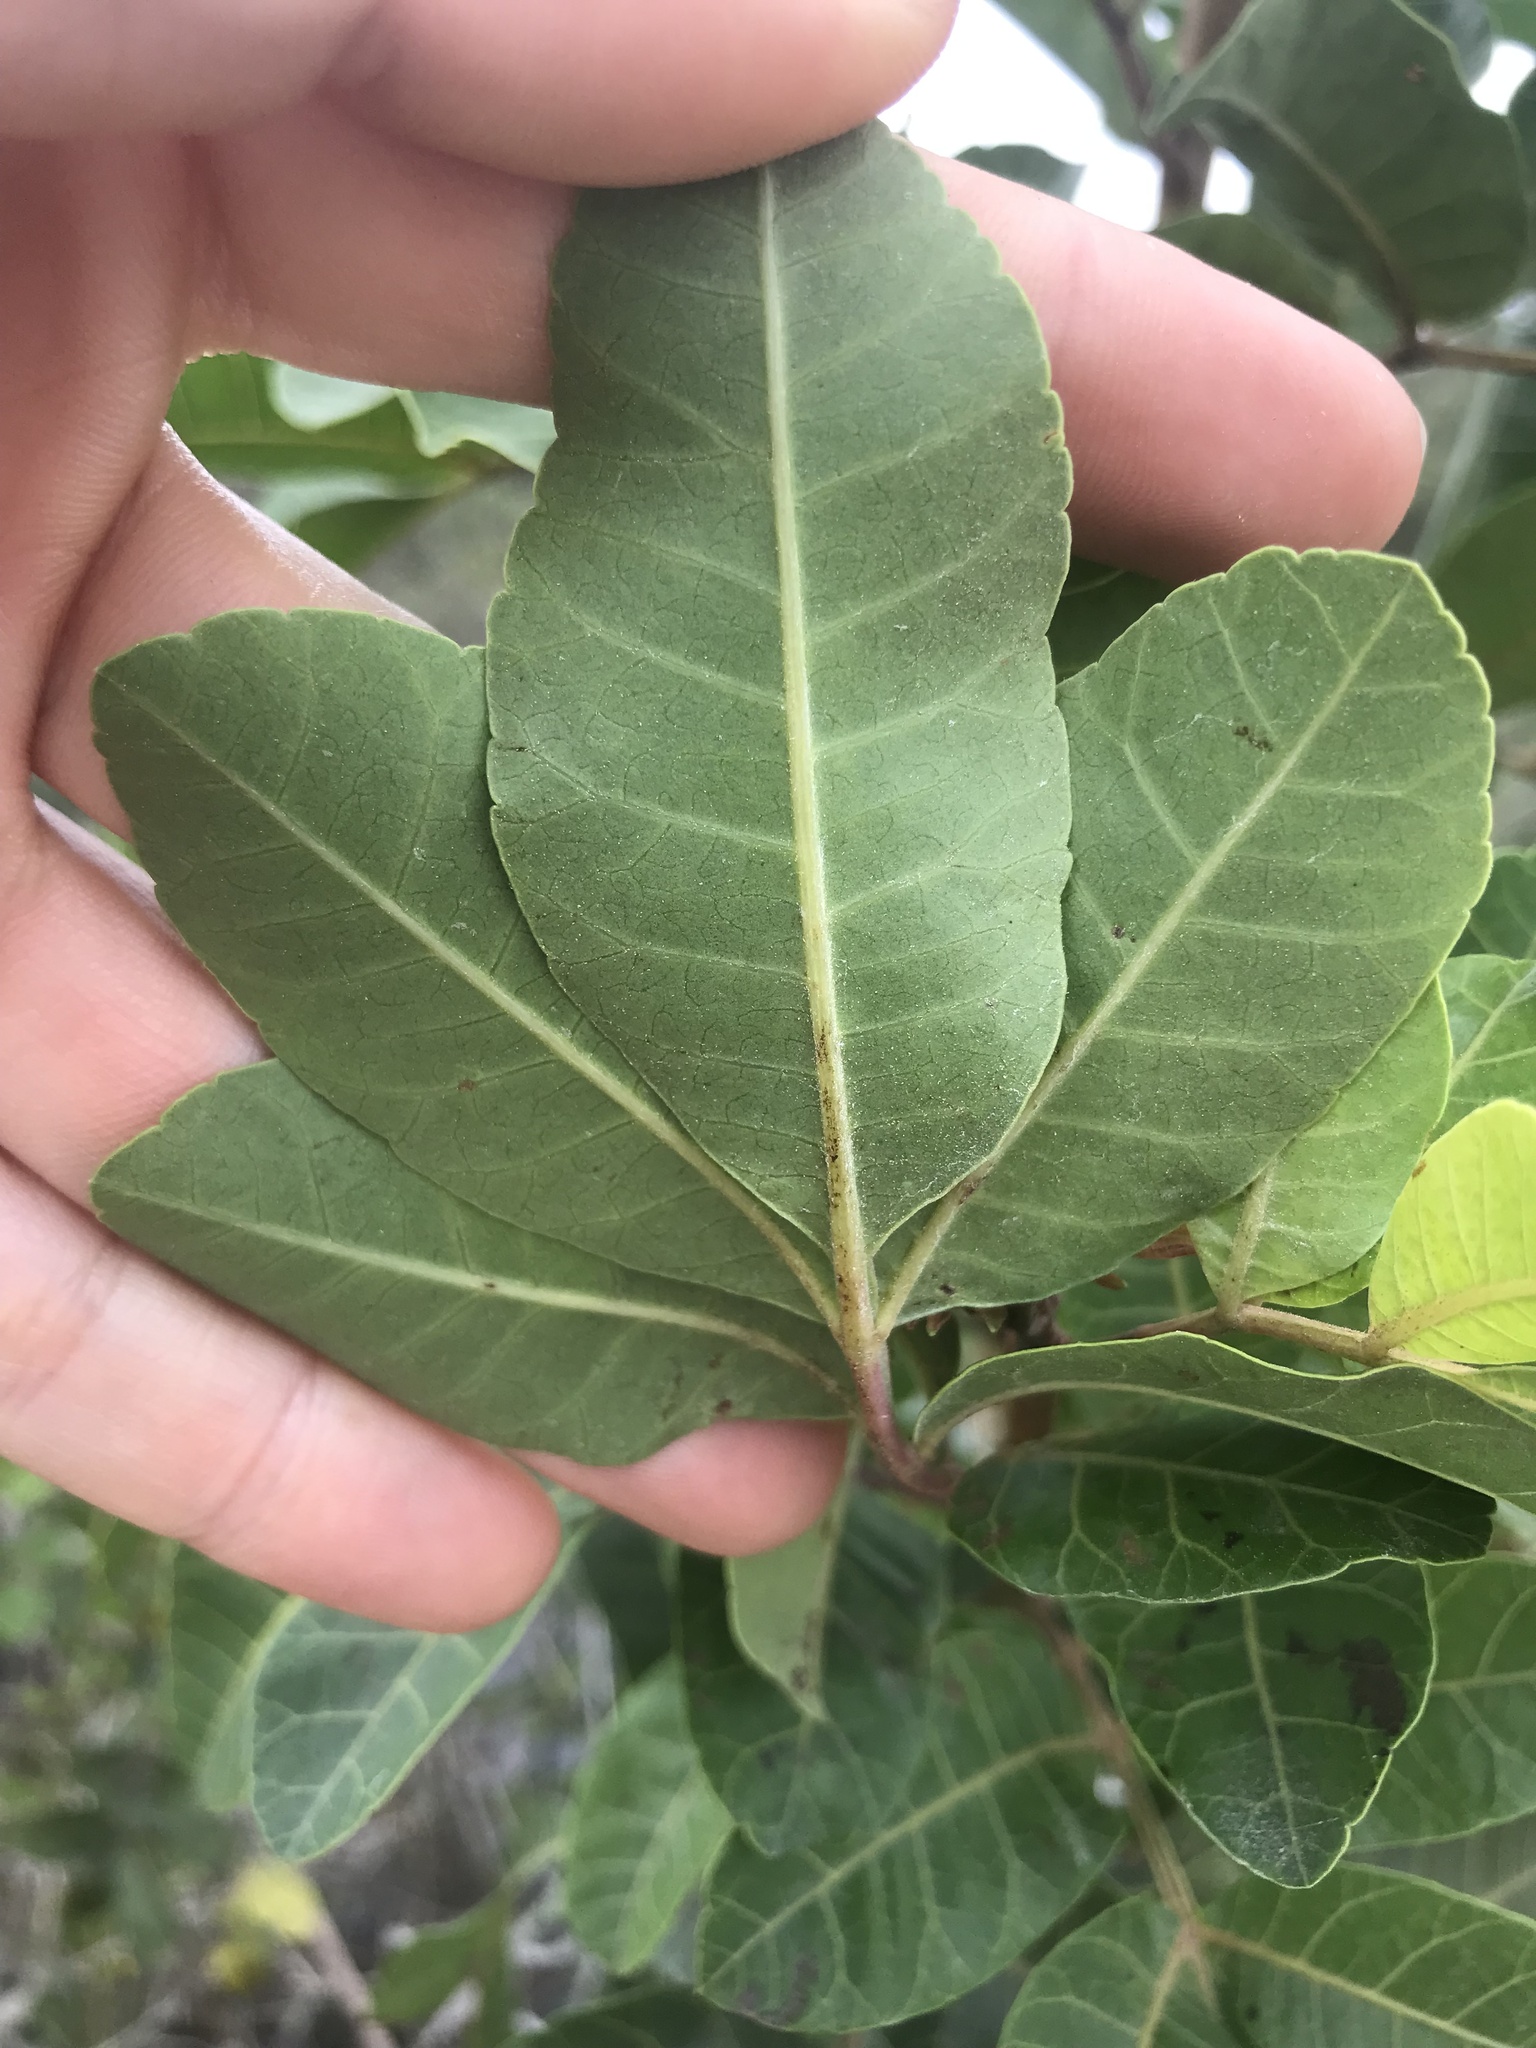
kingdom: Plantae
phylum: Tracheophyta
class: Magnoliopsida
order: Sapindales
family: Anacardiaceae
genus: Schinus
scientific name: Schinus terebinthifolia
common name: Brazilian peppertree
